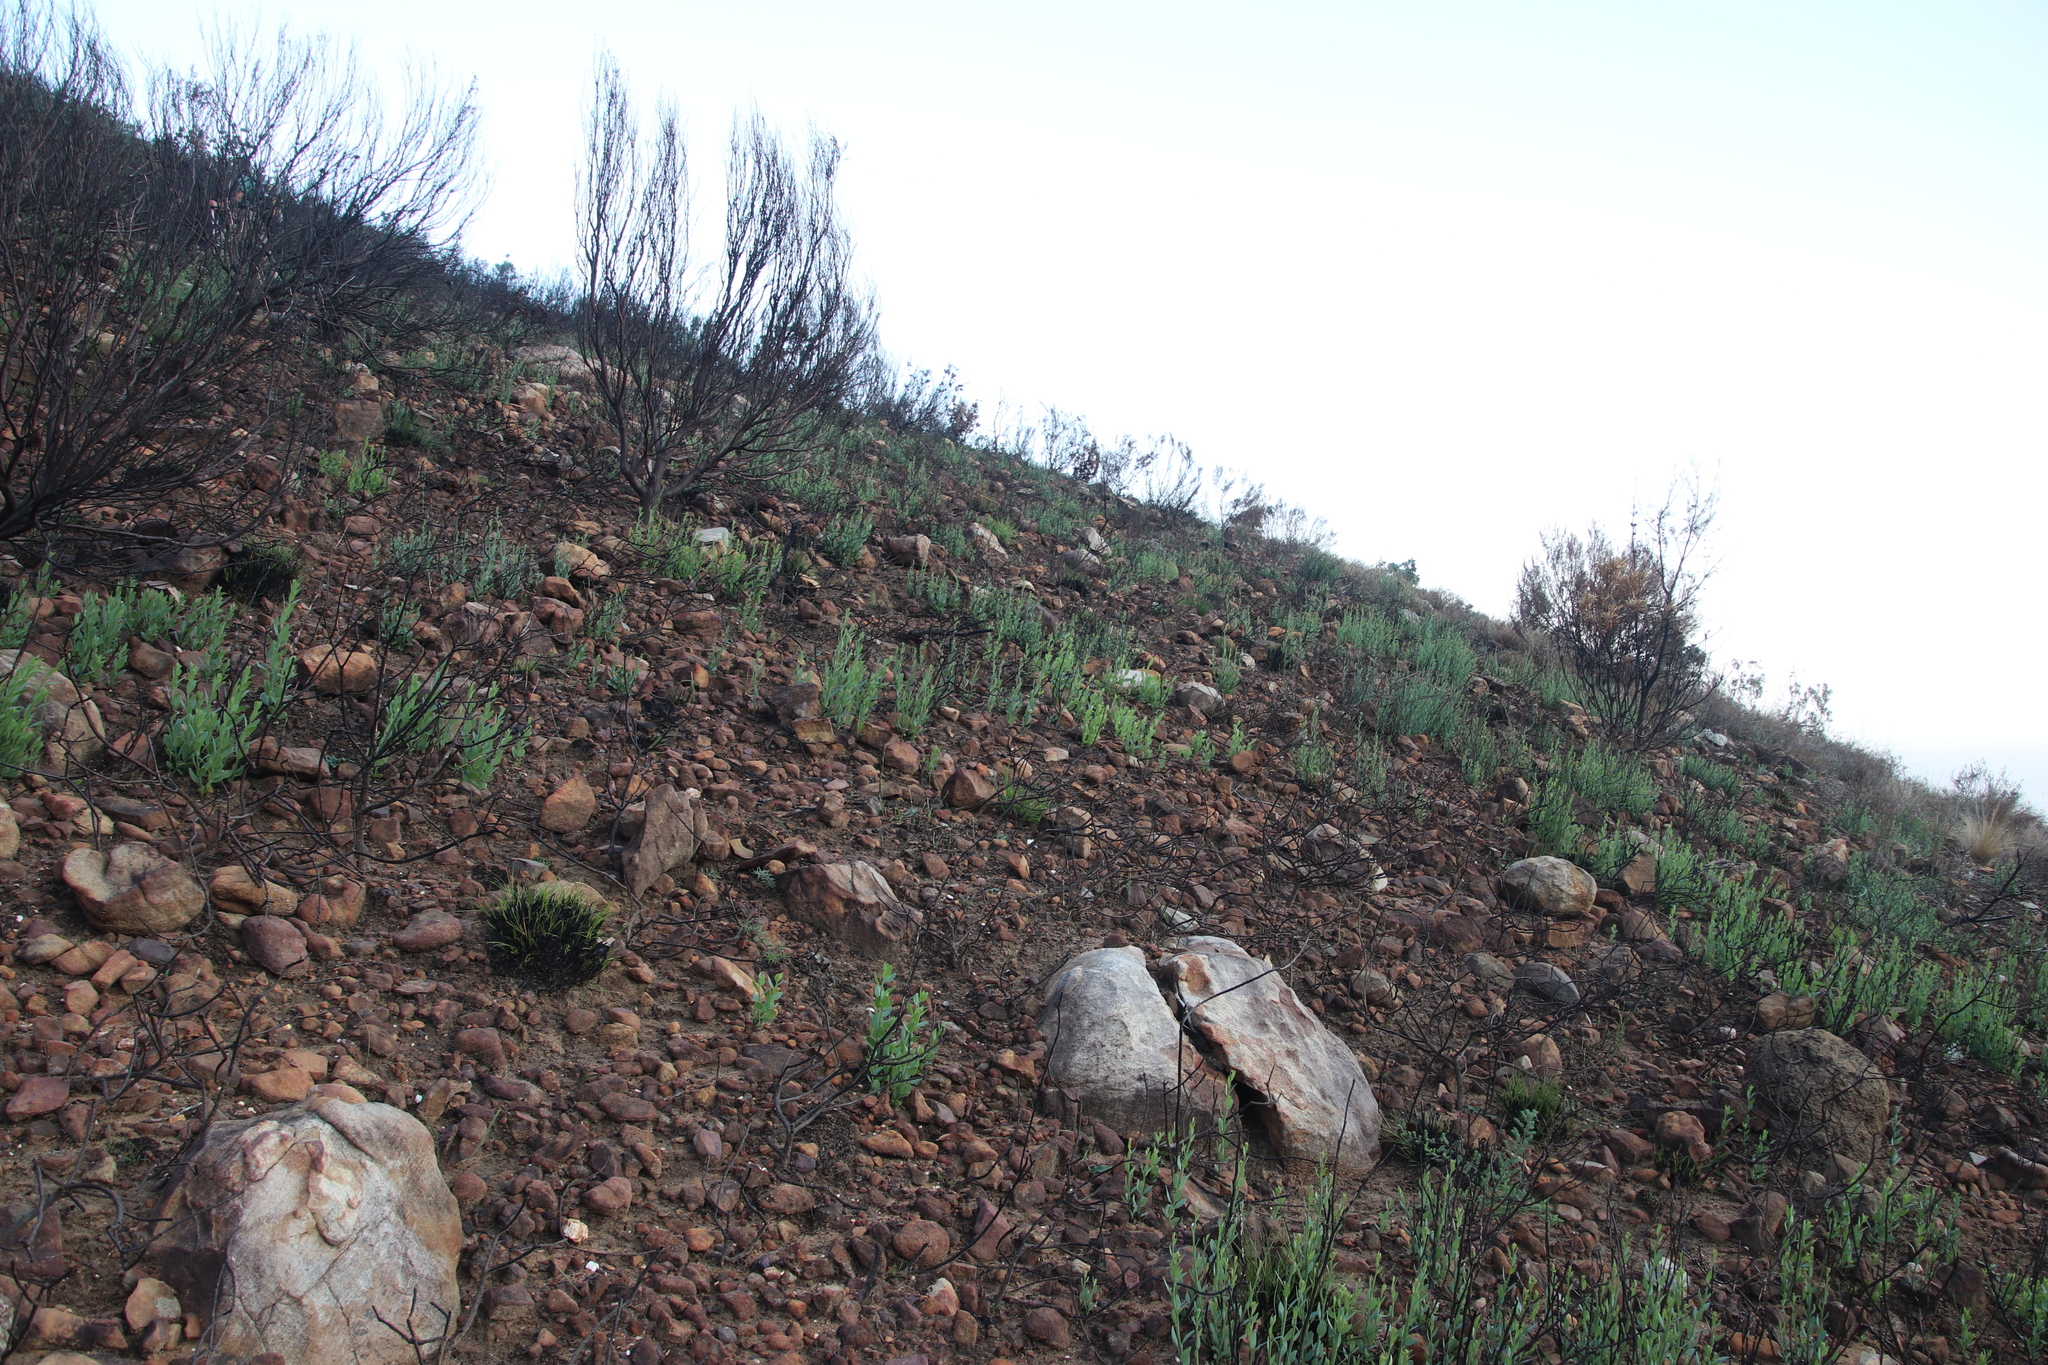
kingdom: Plantae
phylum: Tracheophyta
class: Magnoliopsida
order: Solanales
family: Montiniaceae
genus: Montinia
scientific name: Montinia caryophyllacea
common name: Wild clove-bush
